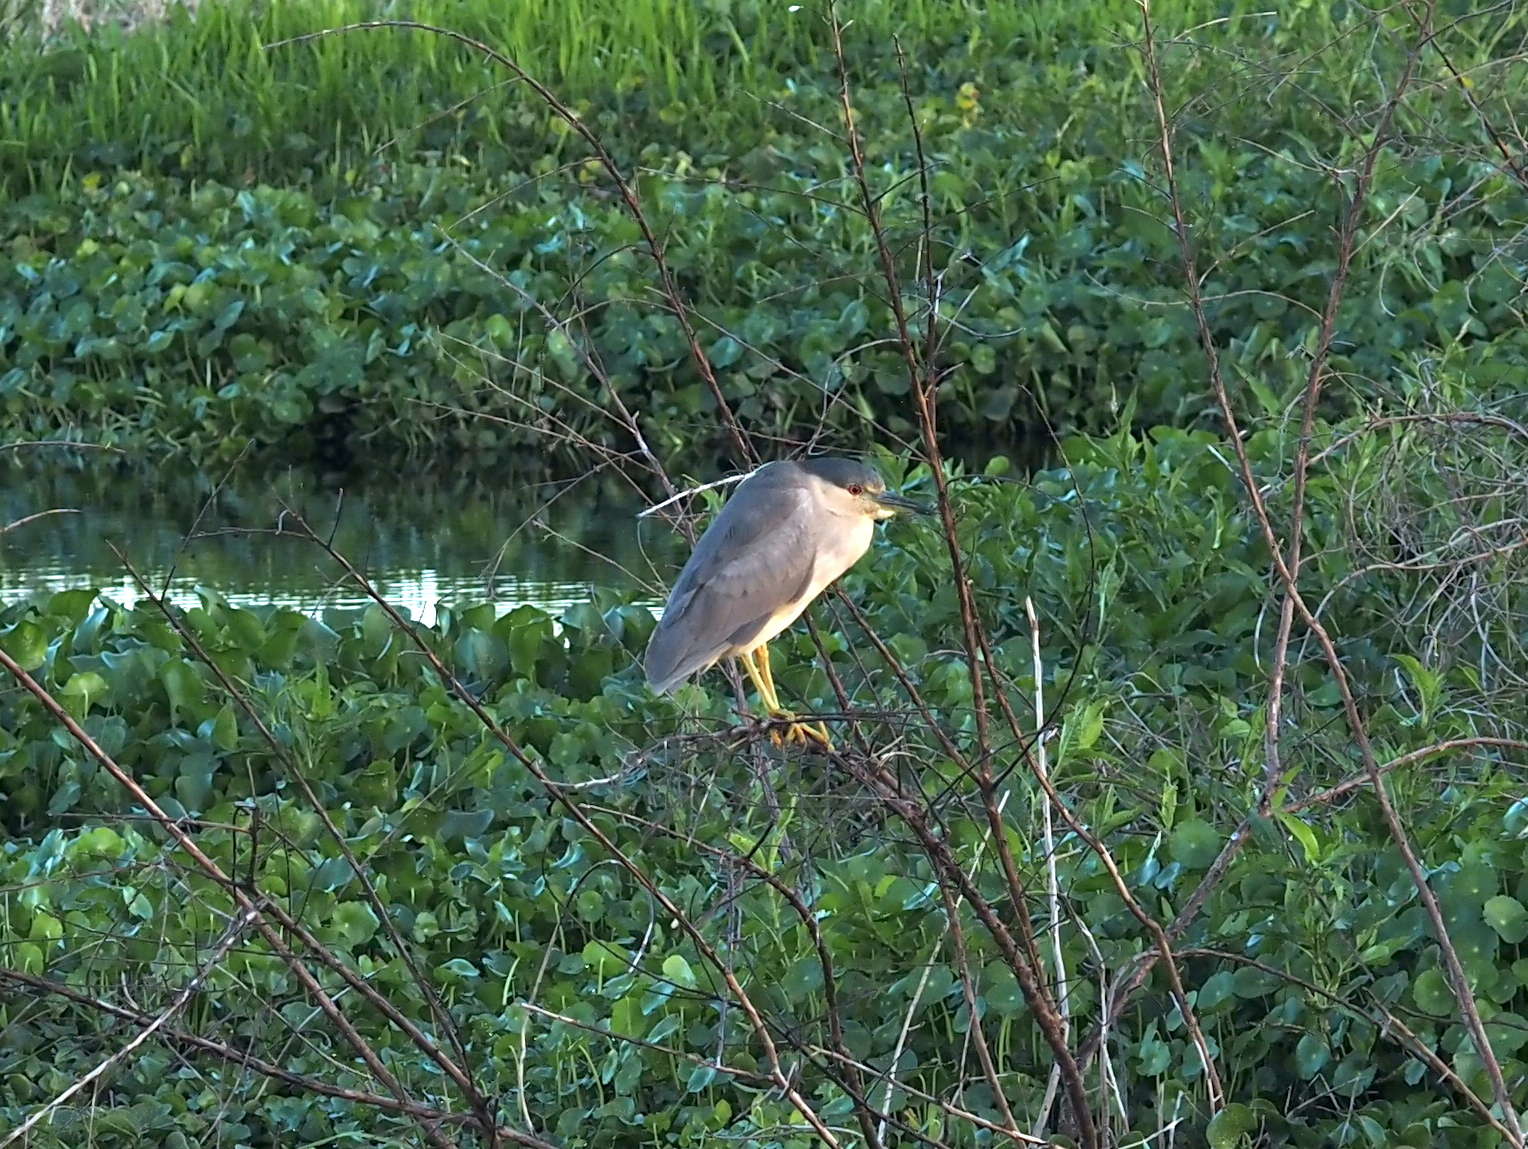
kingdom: Animalia
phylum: Chordata
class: Aves
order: Pelecaniformes
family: Ardeidae
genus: Nycticorax
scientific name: Nycticorax nycticorax
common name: Black-crowned night heron
